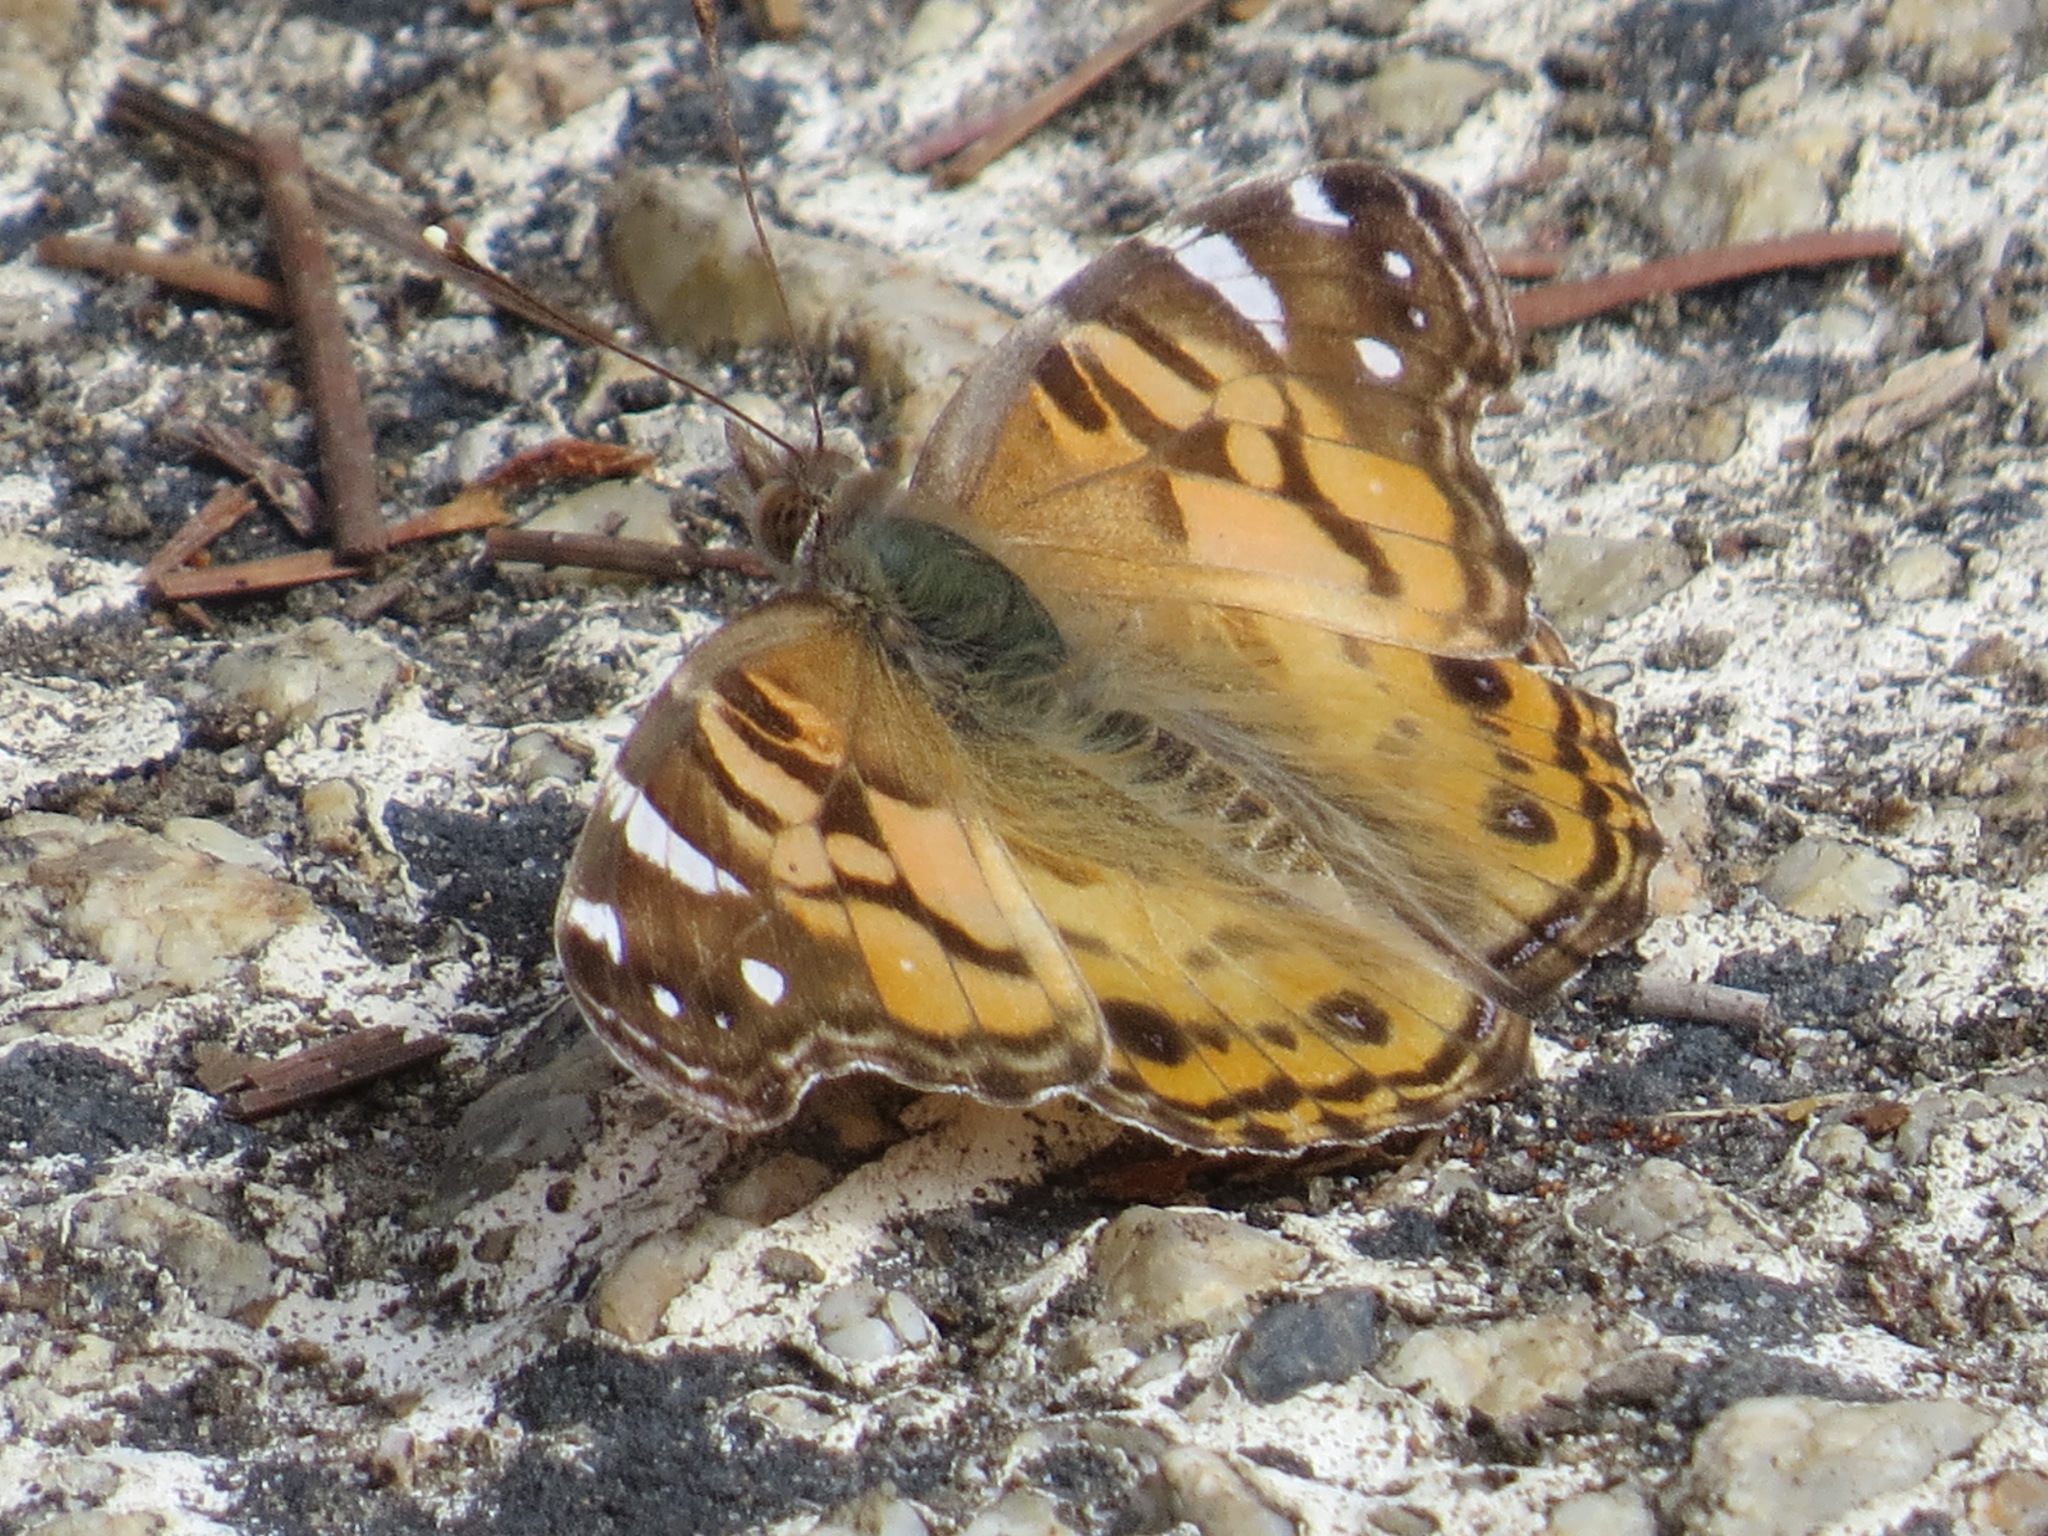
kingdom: Animalia
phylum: Arthropoda
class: Insecta
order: Lepidoptera
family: Nymphalidae
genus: Vanessa
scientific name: Vanessa virginiensis
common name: American lady
